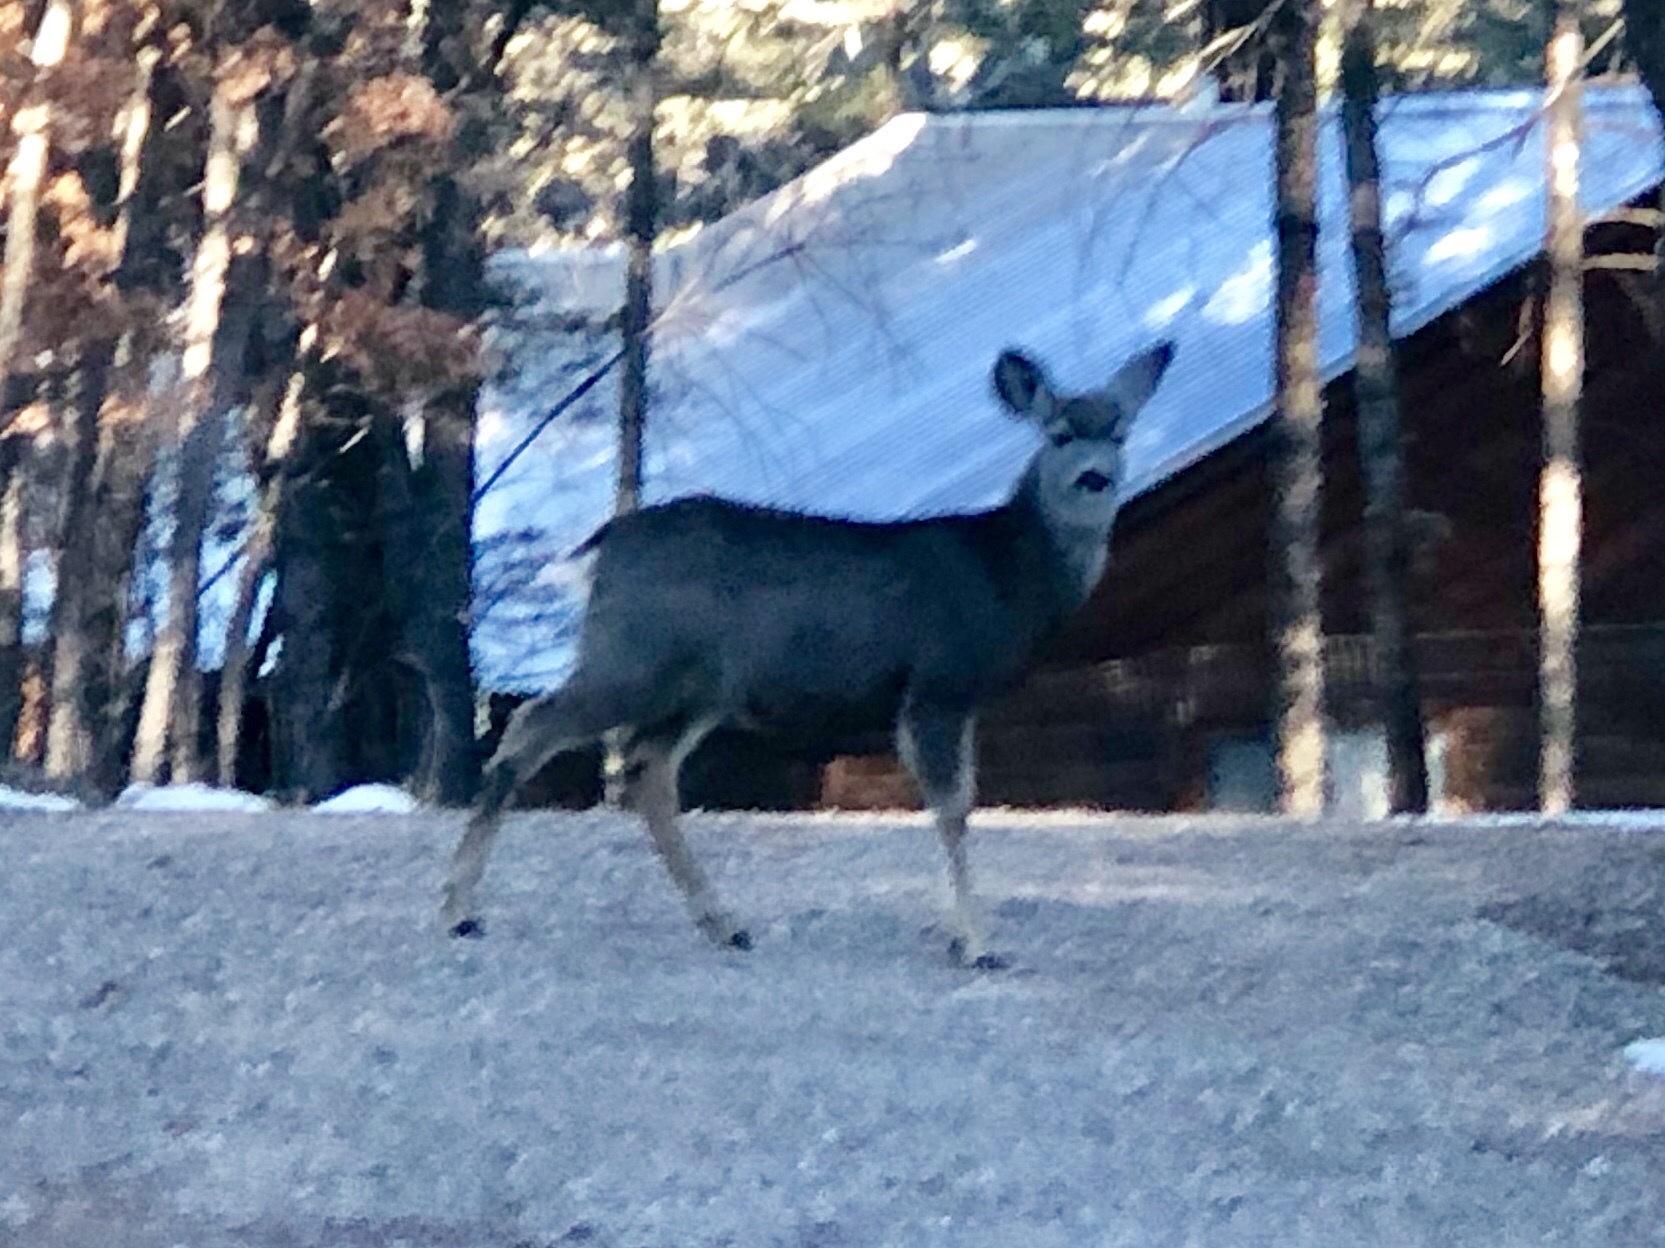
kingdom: Animalia
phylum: Chordata
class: Mammalia
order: Artiodactyla
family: Cervidae
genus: Odocoileus
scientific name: Odocoileus hemionus
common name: Mule deer
